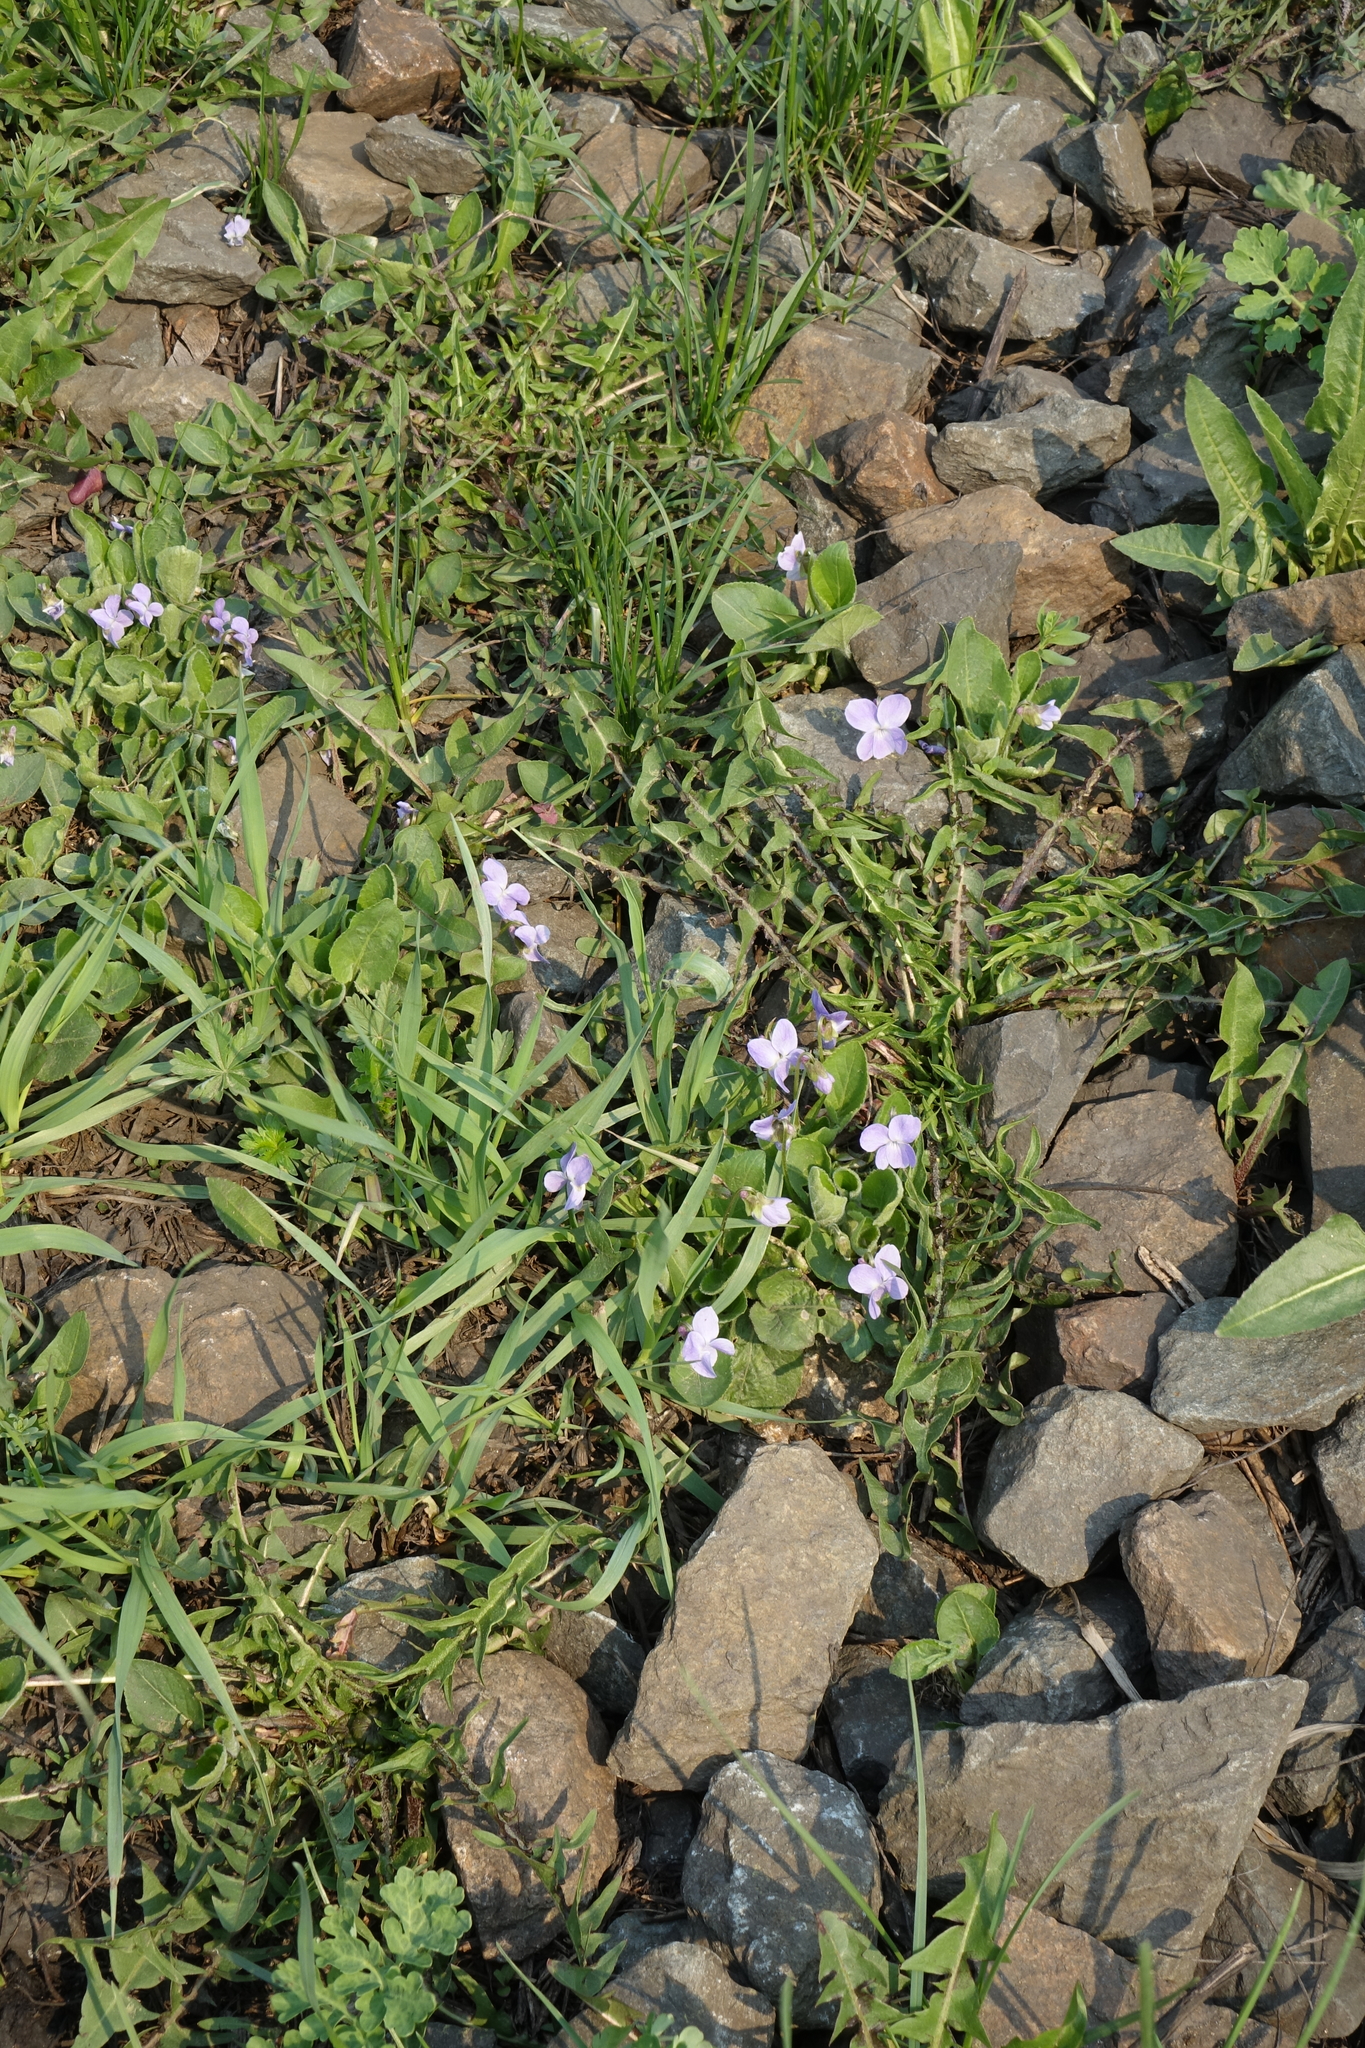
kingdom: Plantae
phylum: Tracheophyta
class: Magnoliopsida
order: Malpighiales
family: Violaceae
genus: Viola
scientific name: Viola hirta
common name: Hairy violet
